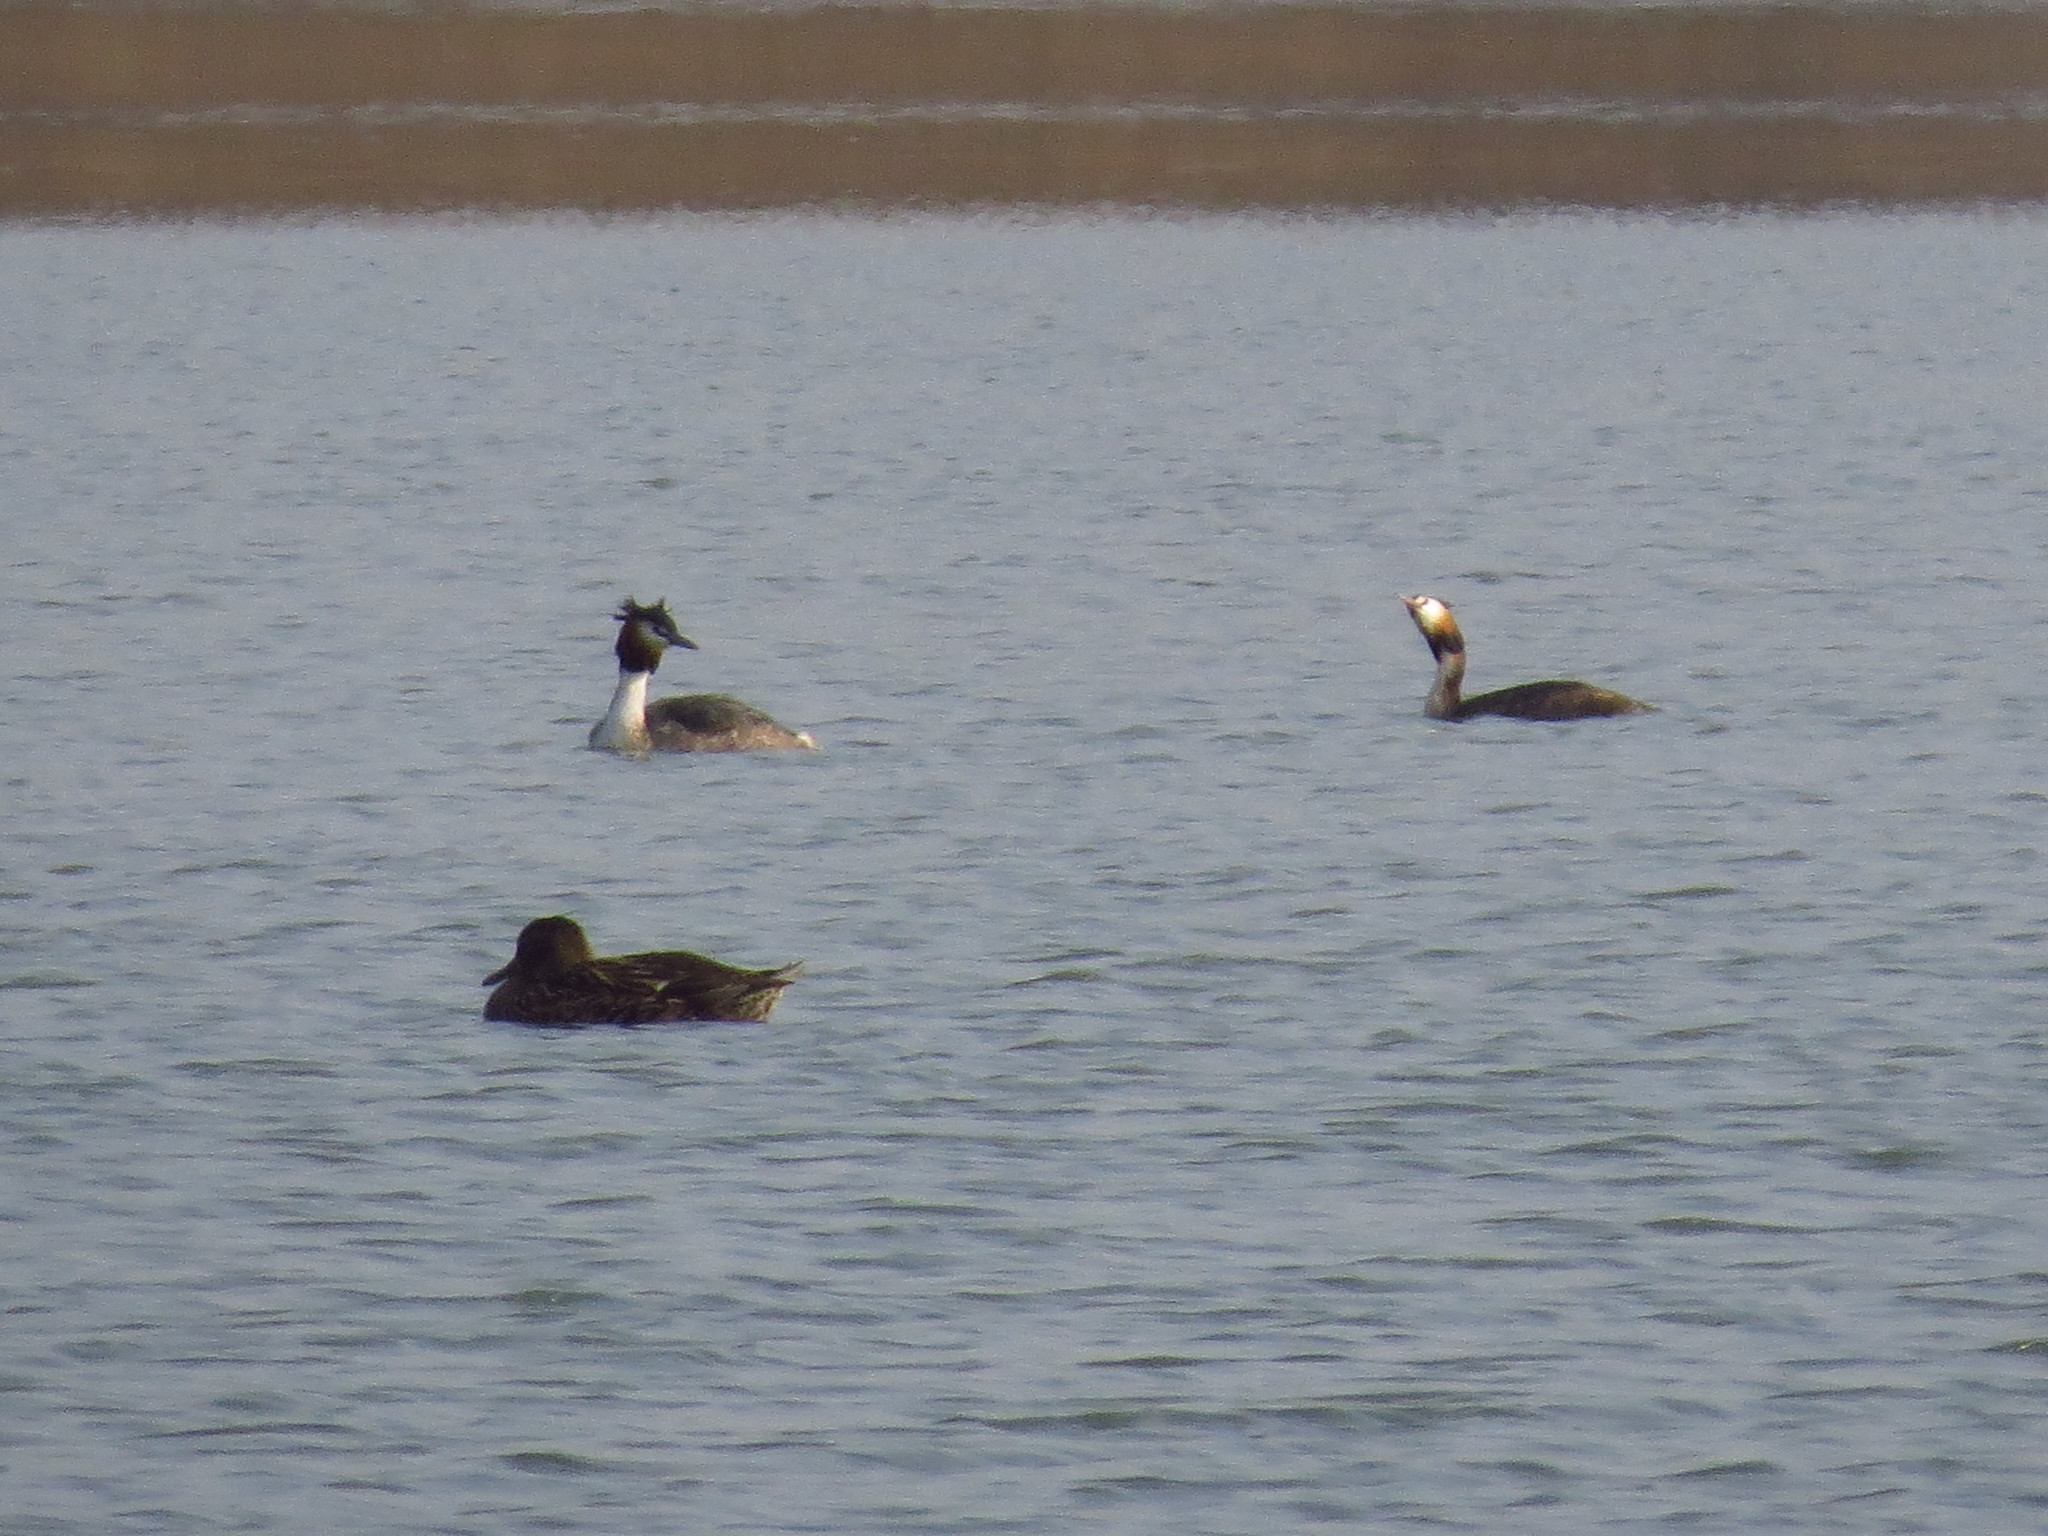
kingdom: Animalia
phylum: Chordata
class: Aves
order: Podicipediformes
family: Podicipedidae
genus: Podiceps
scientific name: Podiceps cristatus
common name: Great crested grebe
